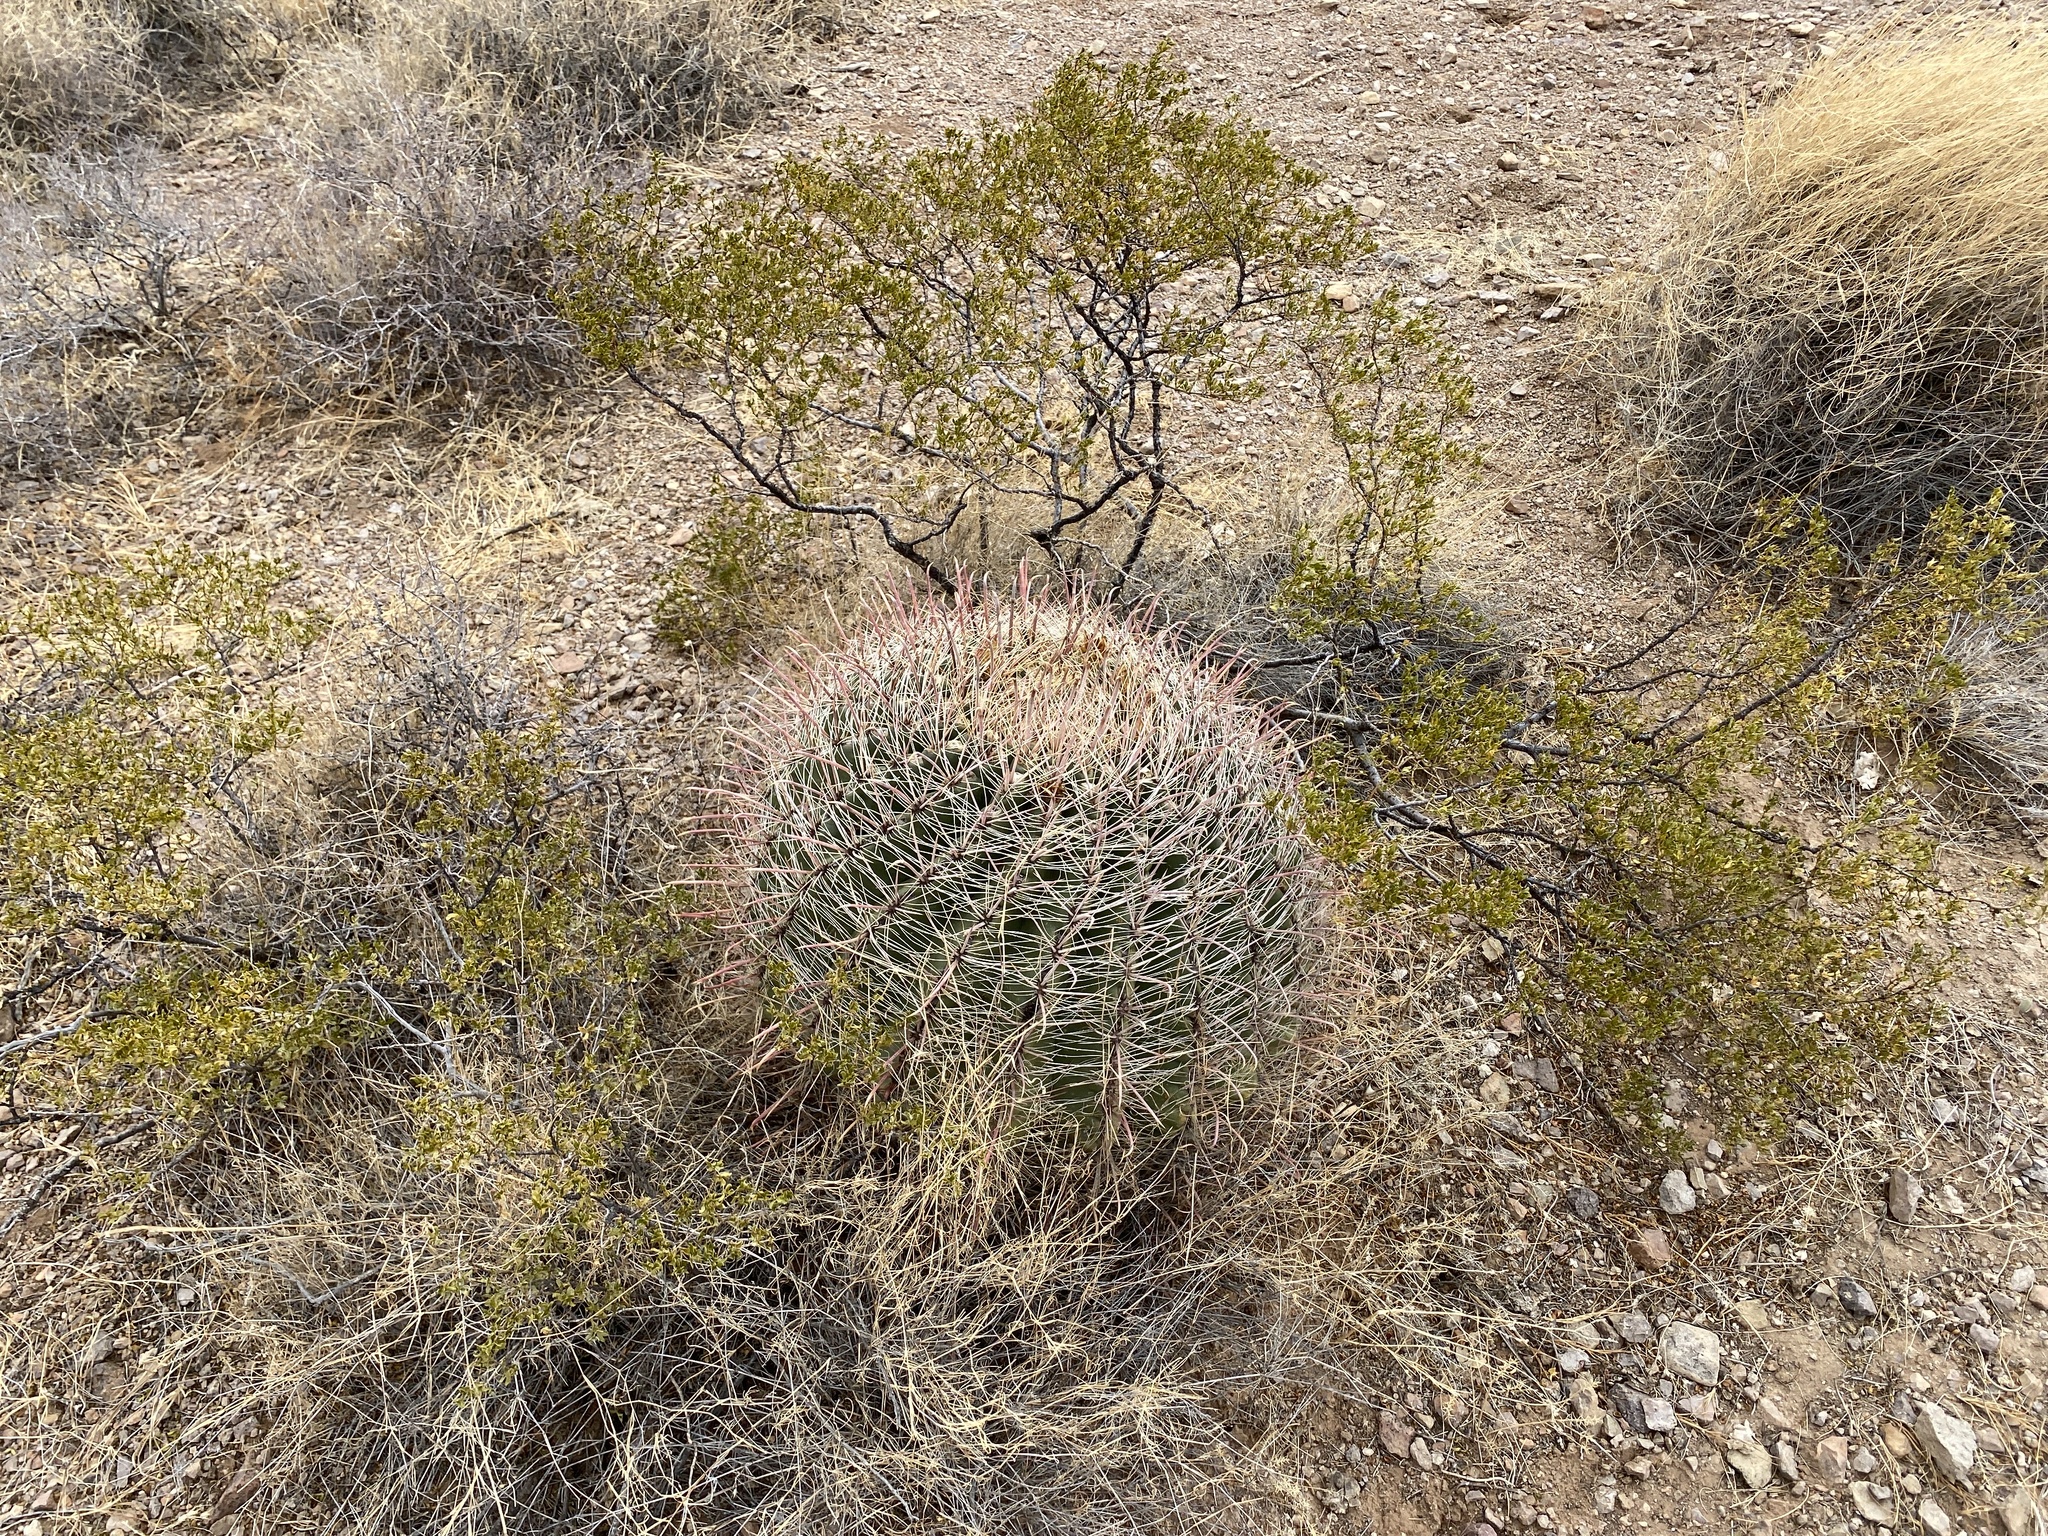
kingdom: Plantae
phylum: Tracheophyta
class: Magnoliopsida
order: Caryophyllales
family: Cactaceae
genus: Ferocactus
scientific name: Ferocactus wislizeni
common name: Candy barrel cactus
